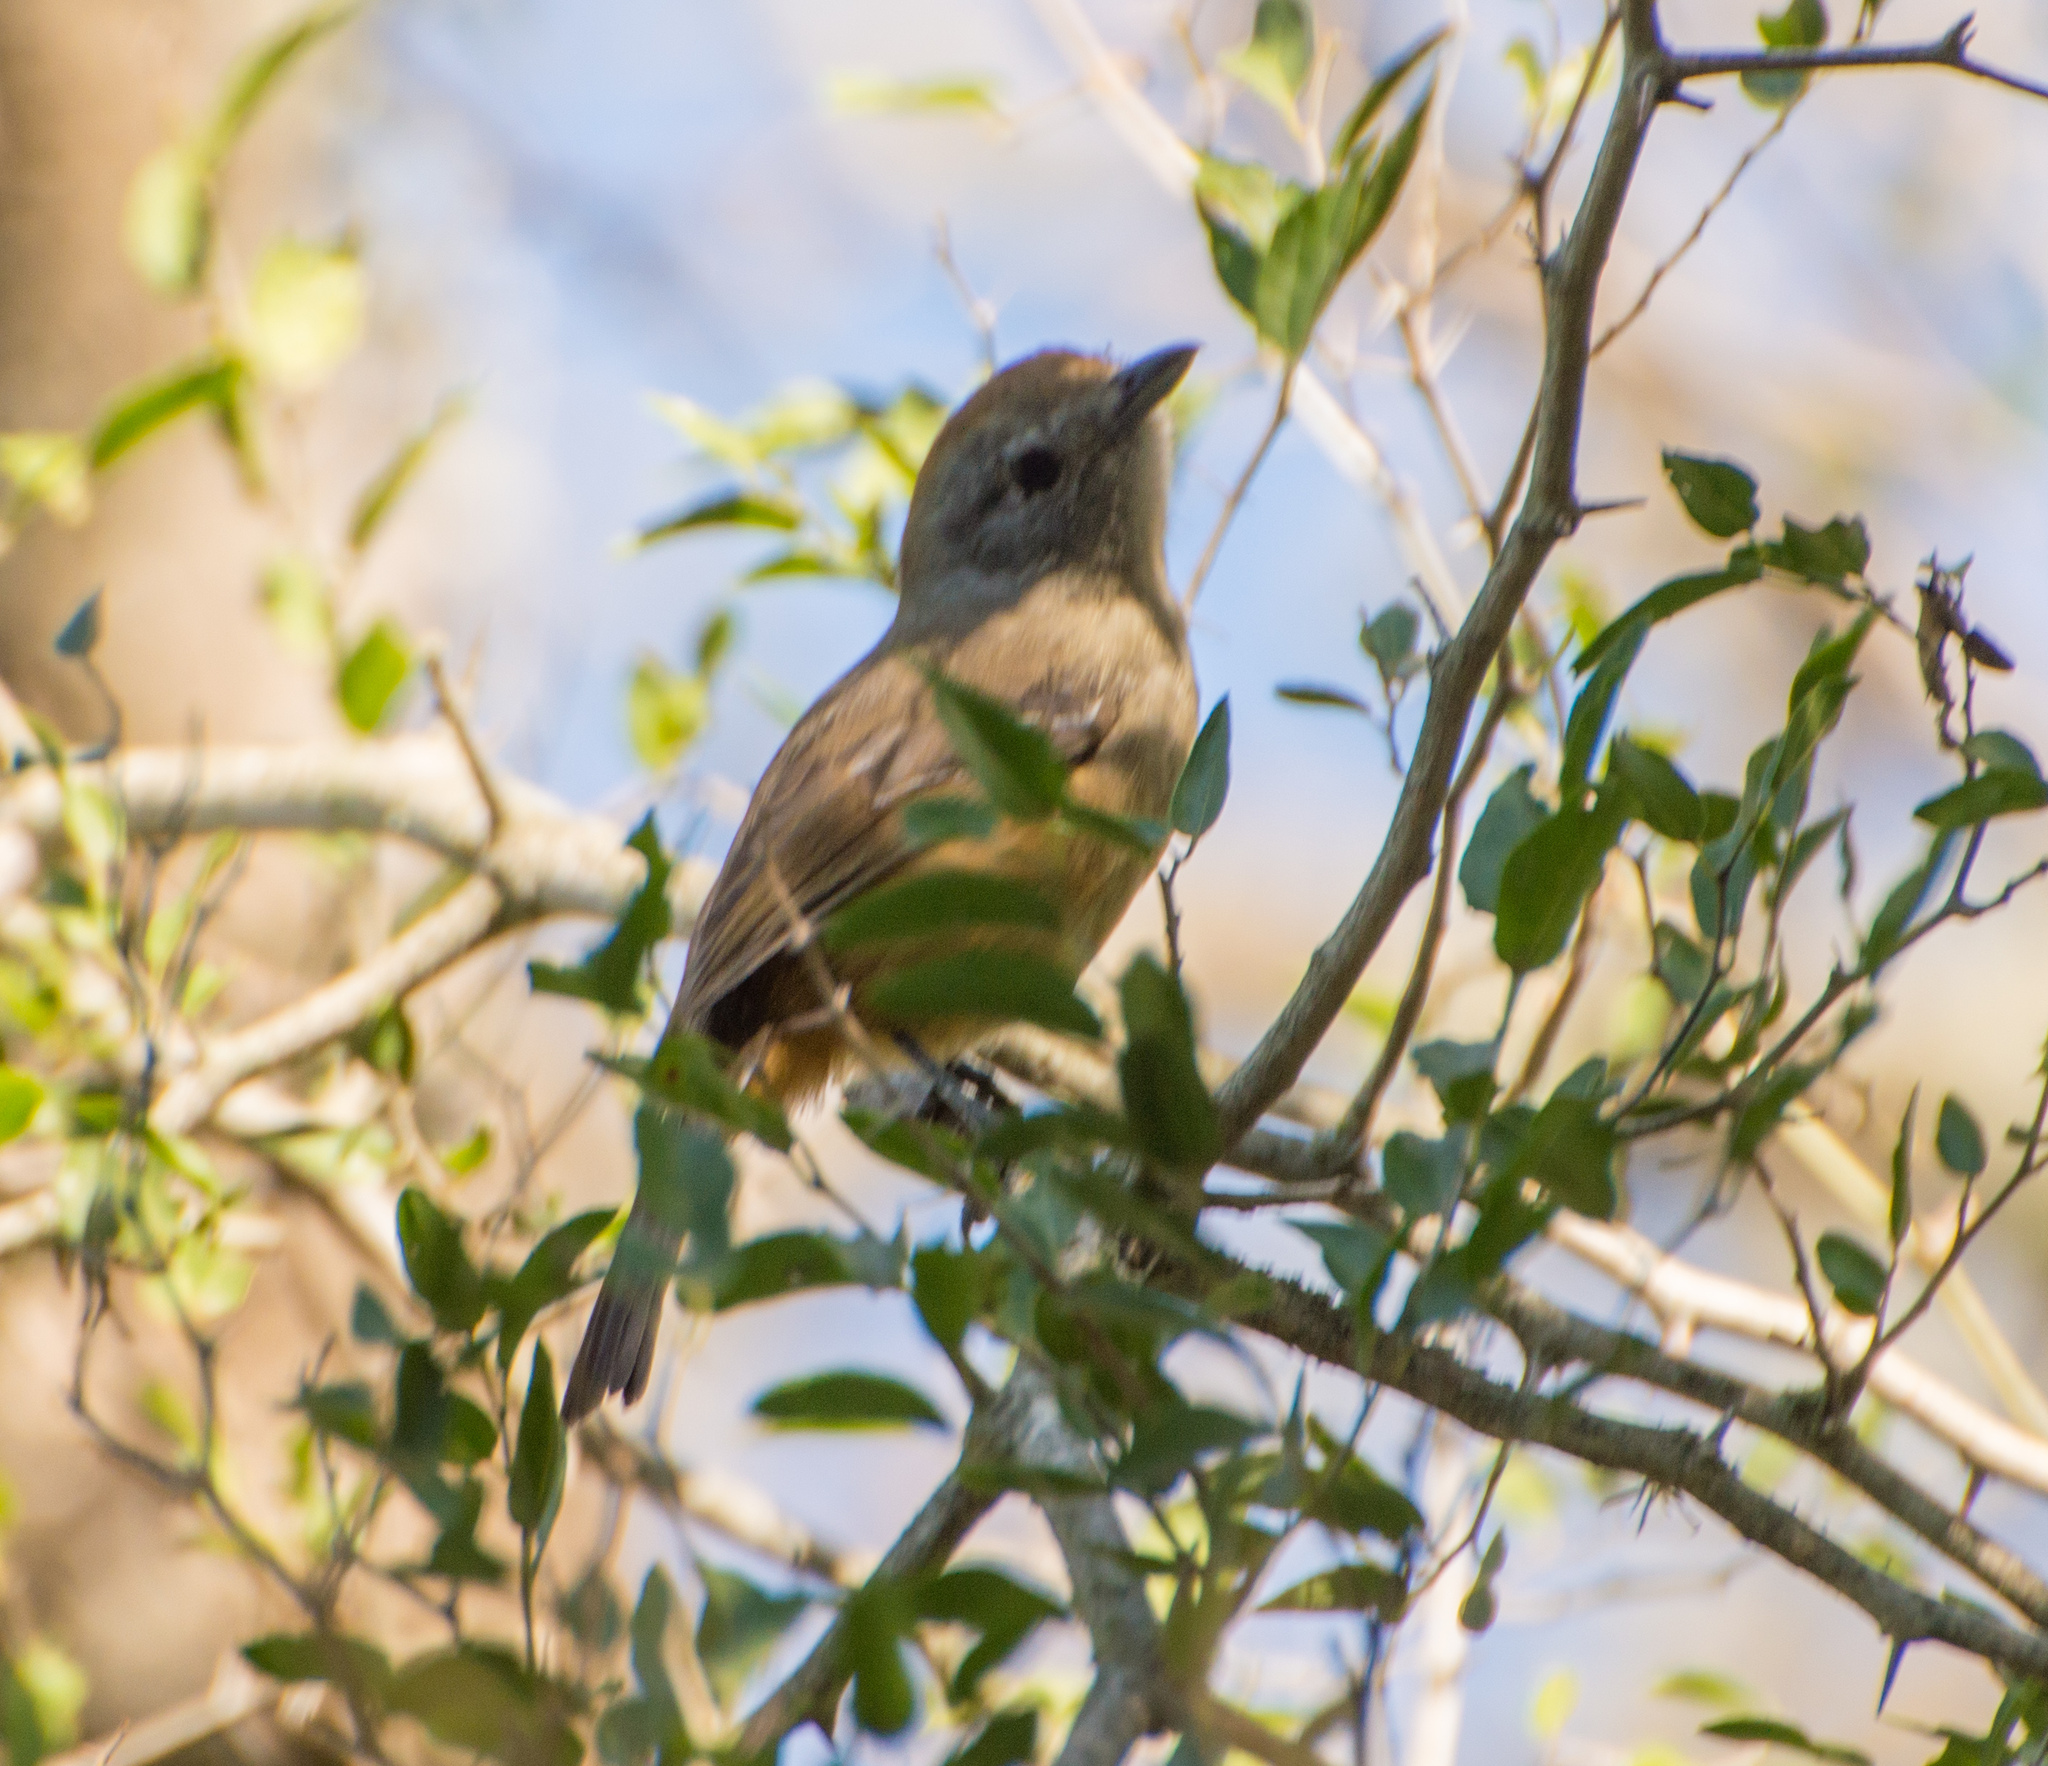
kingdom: Animalia
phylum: Chordata
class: Aves
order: Passeriformes
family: Thamnophilidae
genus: Thamnophilus
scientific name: Thamnophilus caerulescens
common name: Variable antshrike
